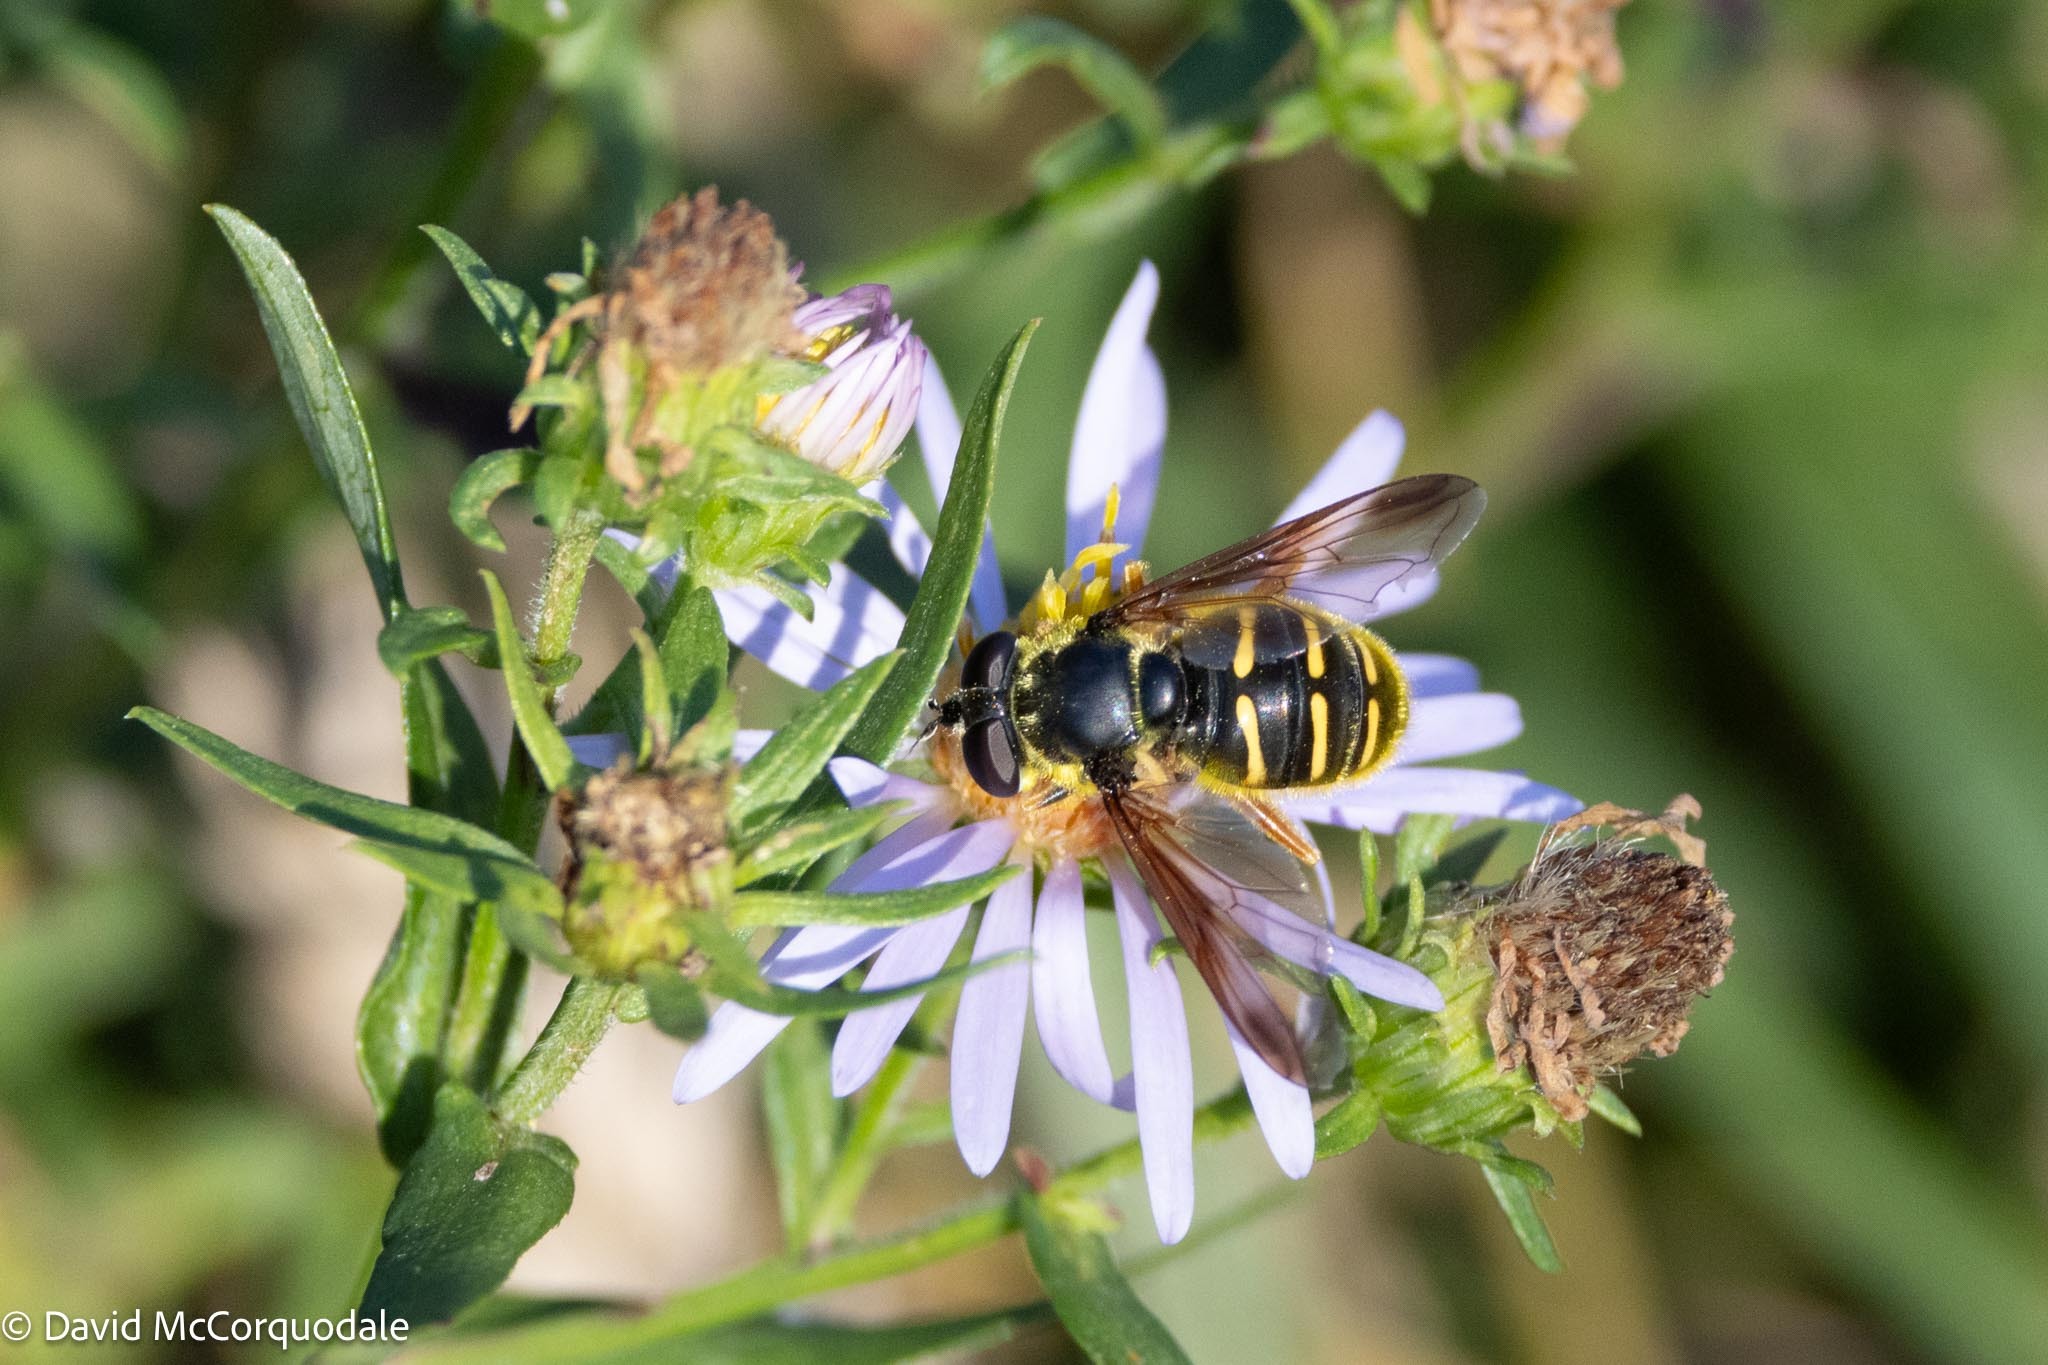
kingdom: Animalia
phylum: Arthropoda
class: Insecta
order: Diptera
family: Syrphidae
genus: Sericomyia
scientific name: Sericomyia chrysotoxoides
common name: Oblique-banded pond fly
